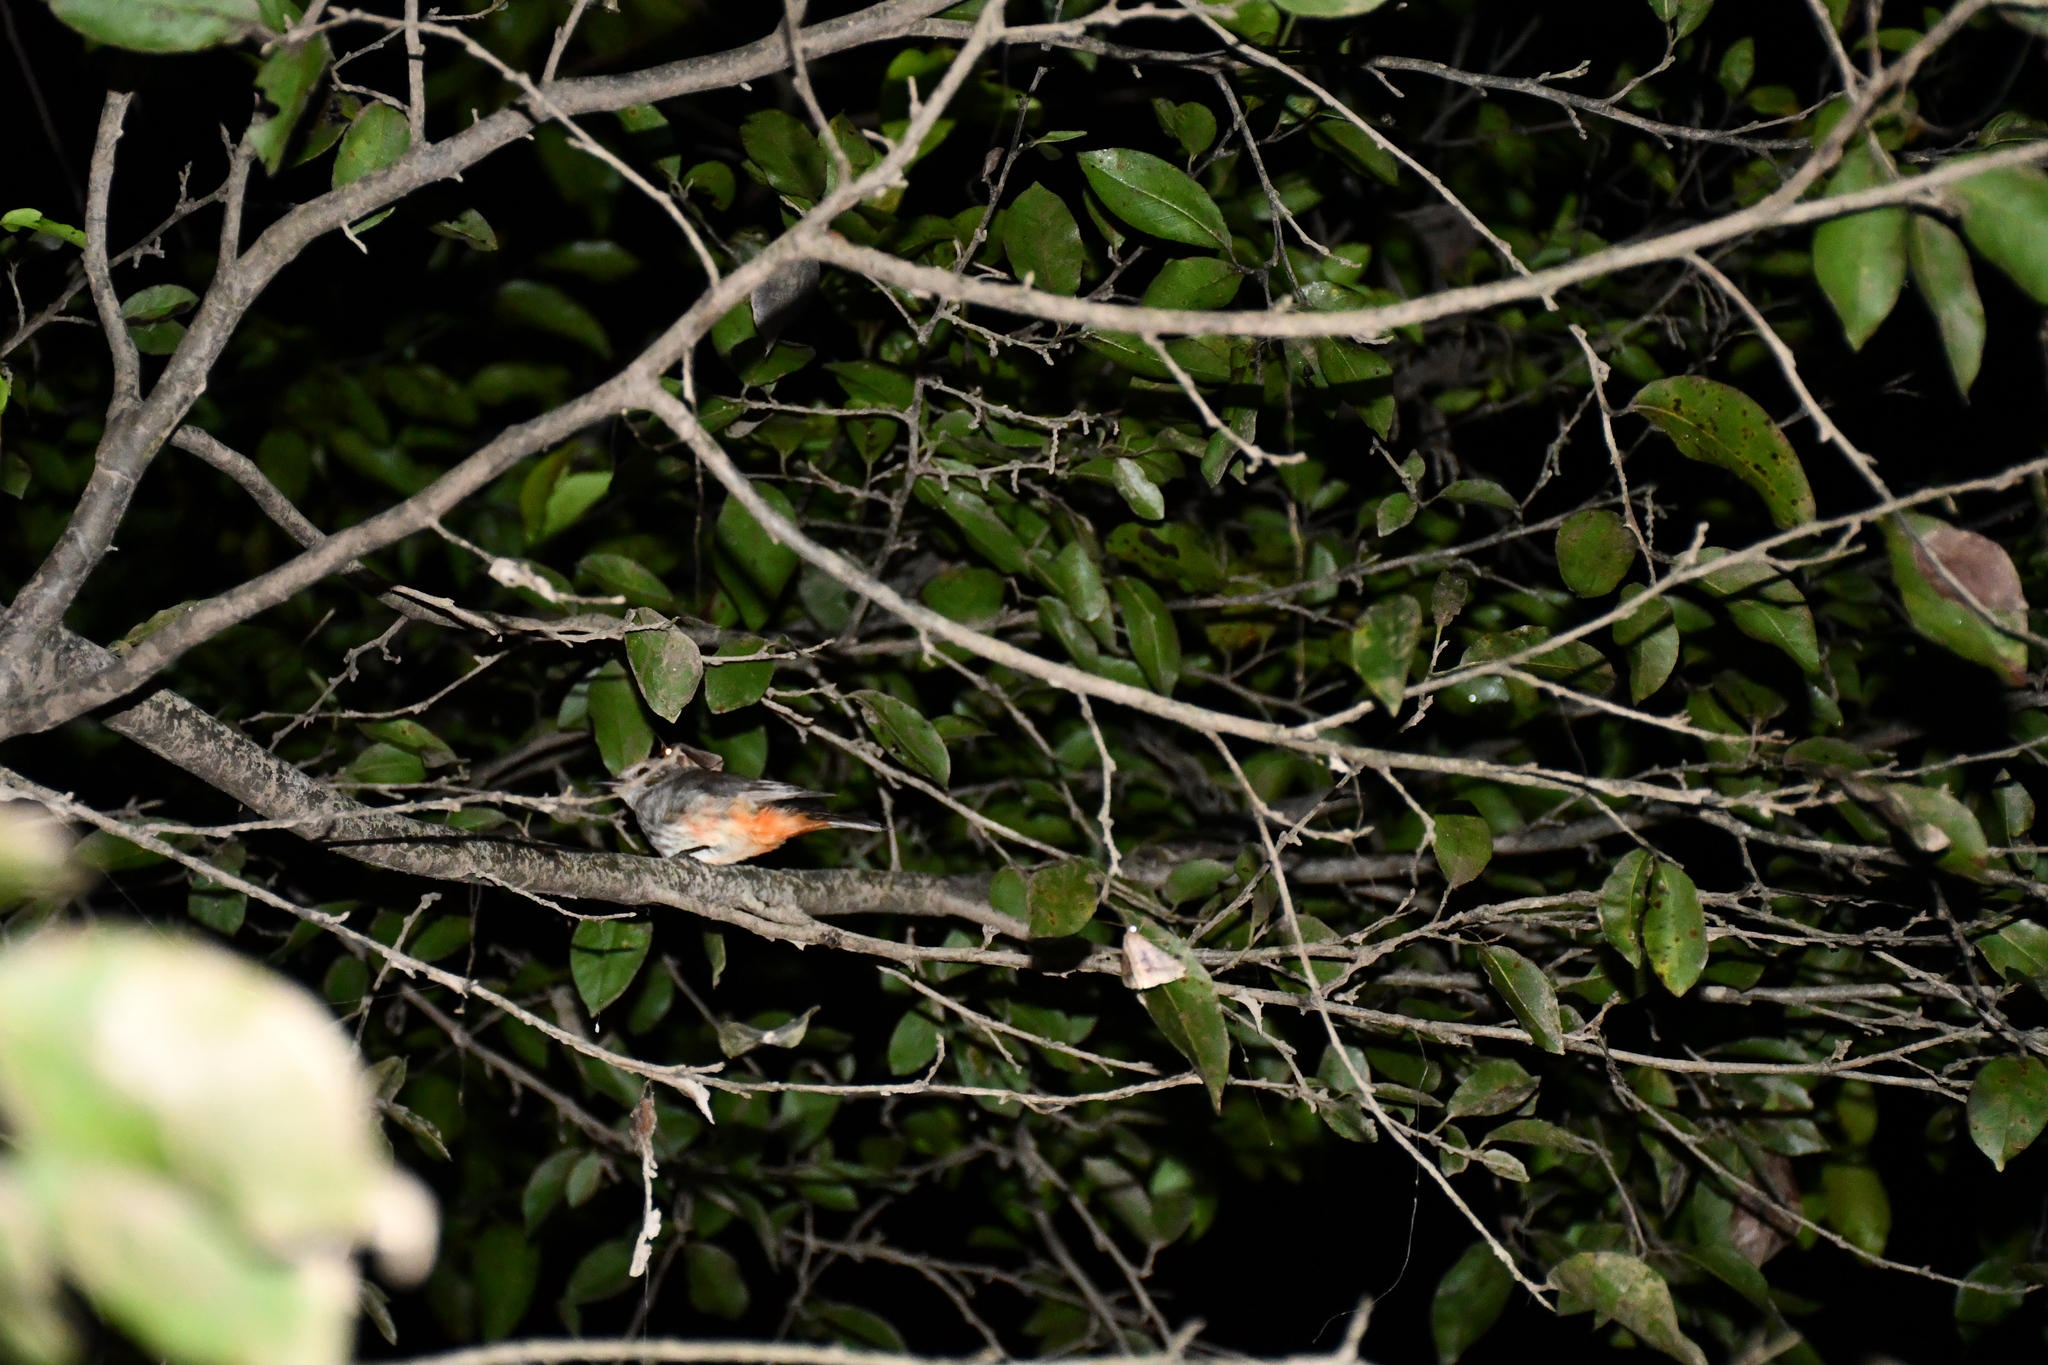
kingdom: Animalia
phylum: Chordata
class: Aves
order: Passeriformes
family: Tyrannidae
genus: Pyrocephalus
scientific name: Pyrocephalus rubinus
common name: Vermilion flycatcher
